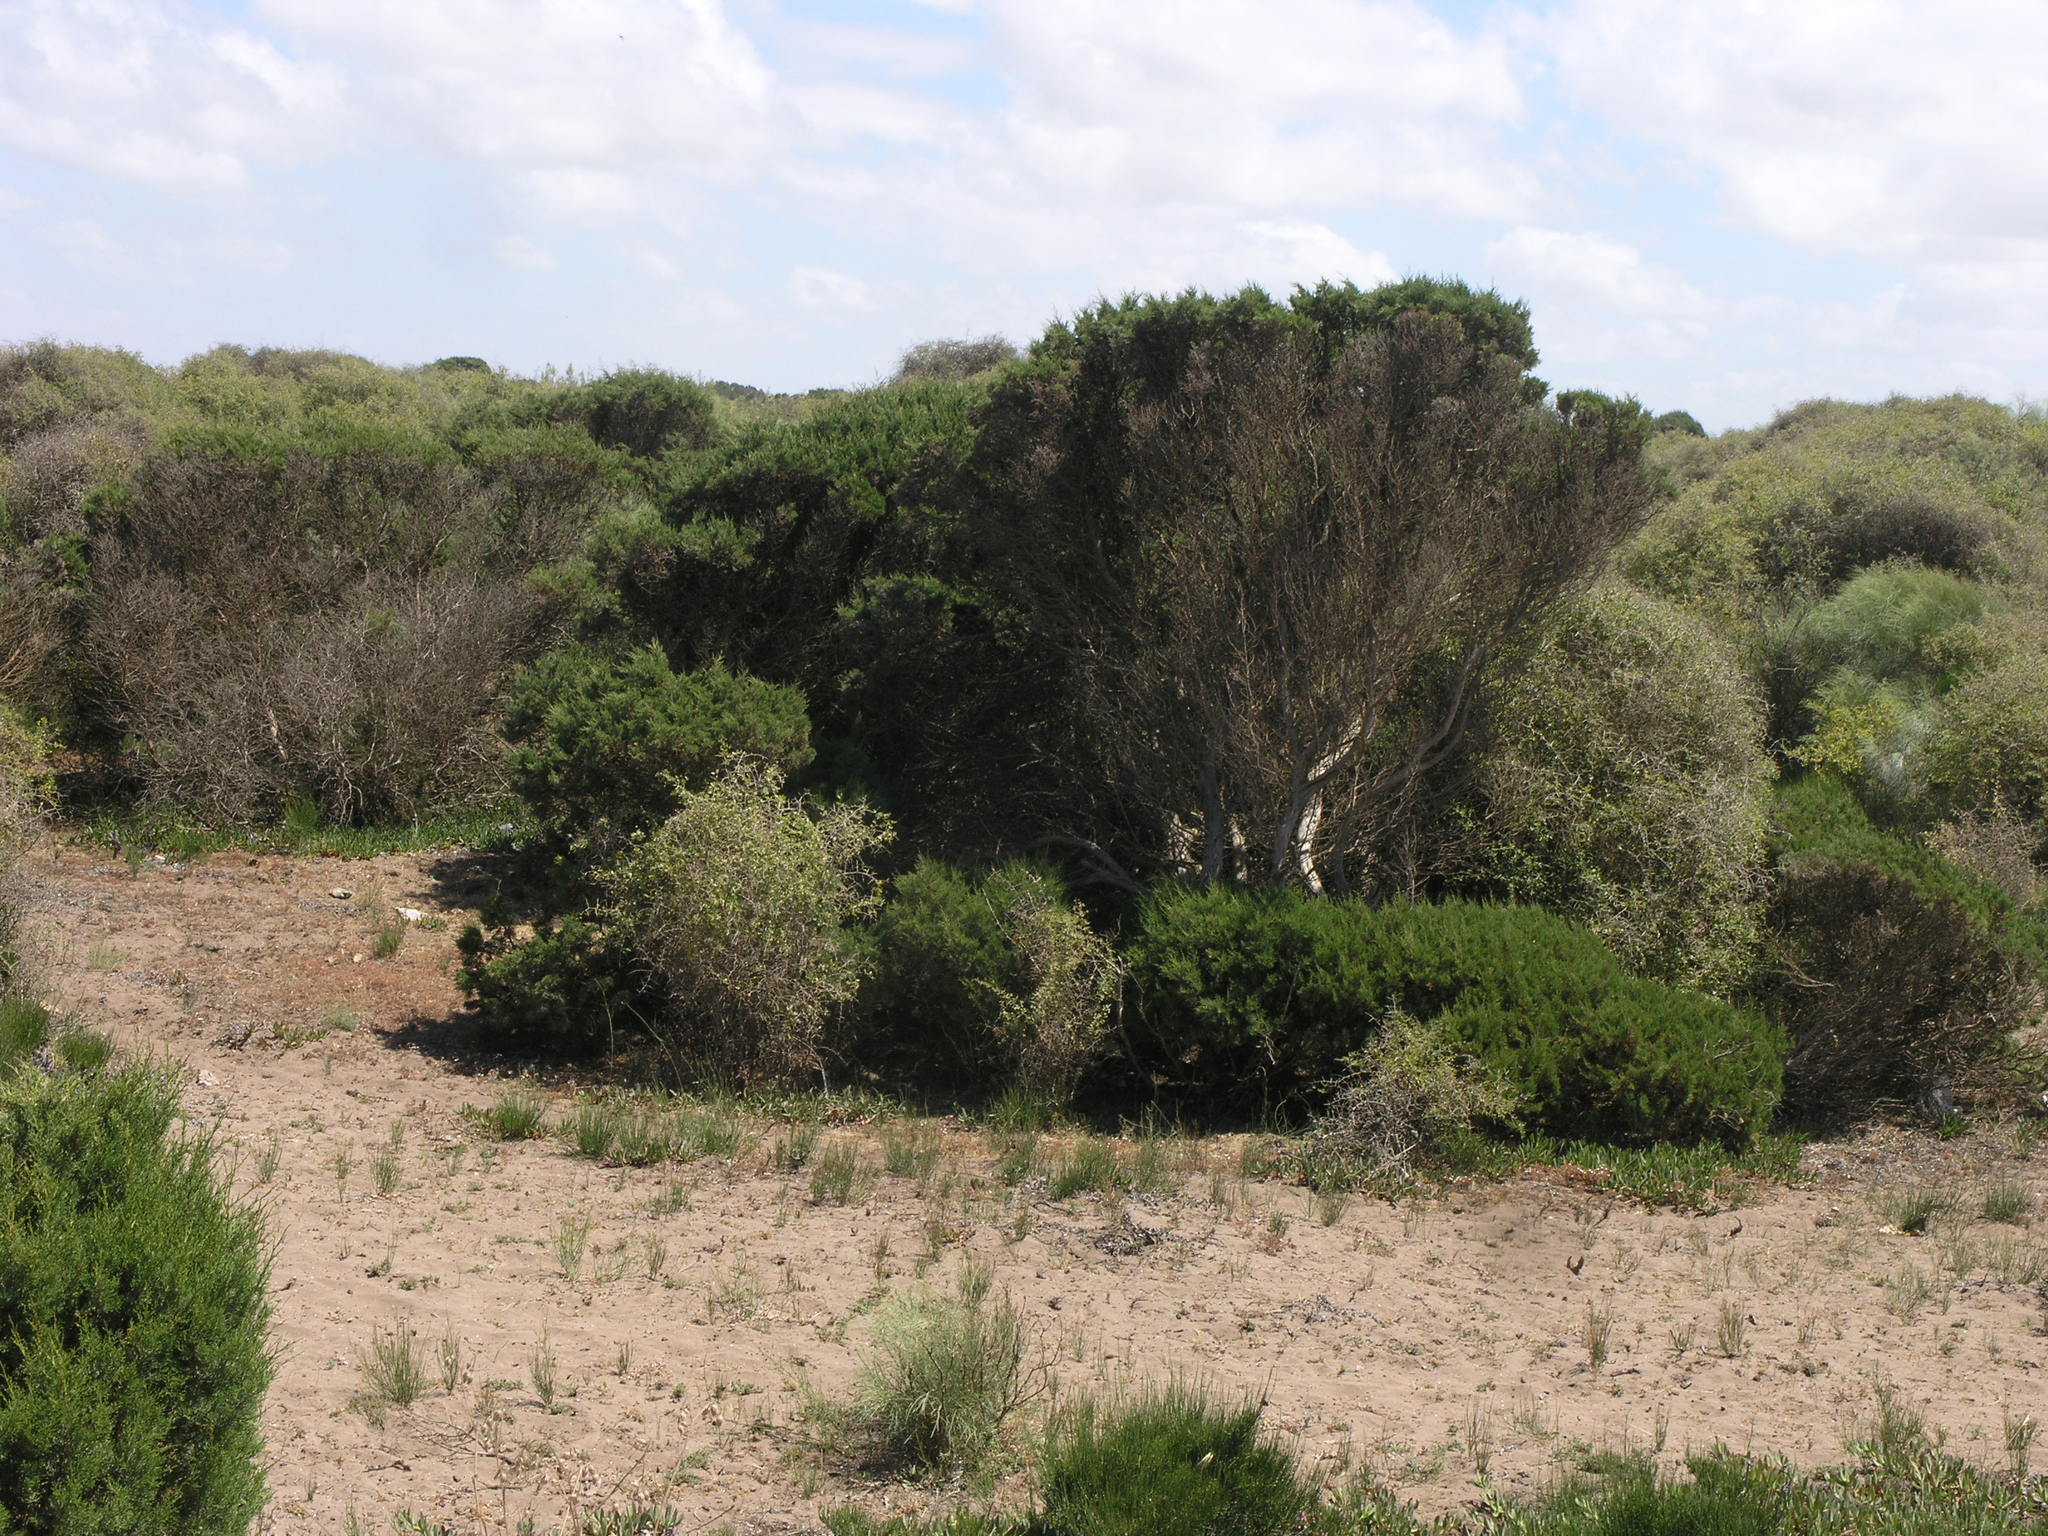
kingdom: Plantae
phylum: Tracheophyta
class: Pinopsida
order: Pinales
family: Cupressaceae
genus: Juniperus
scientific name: Juniperus phoenicea
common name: Phoenician juniper
